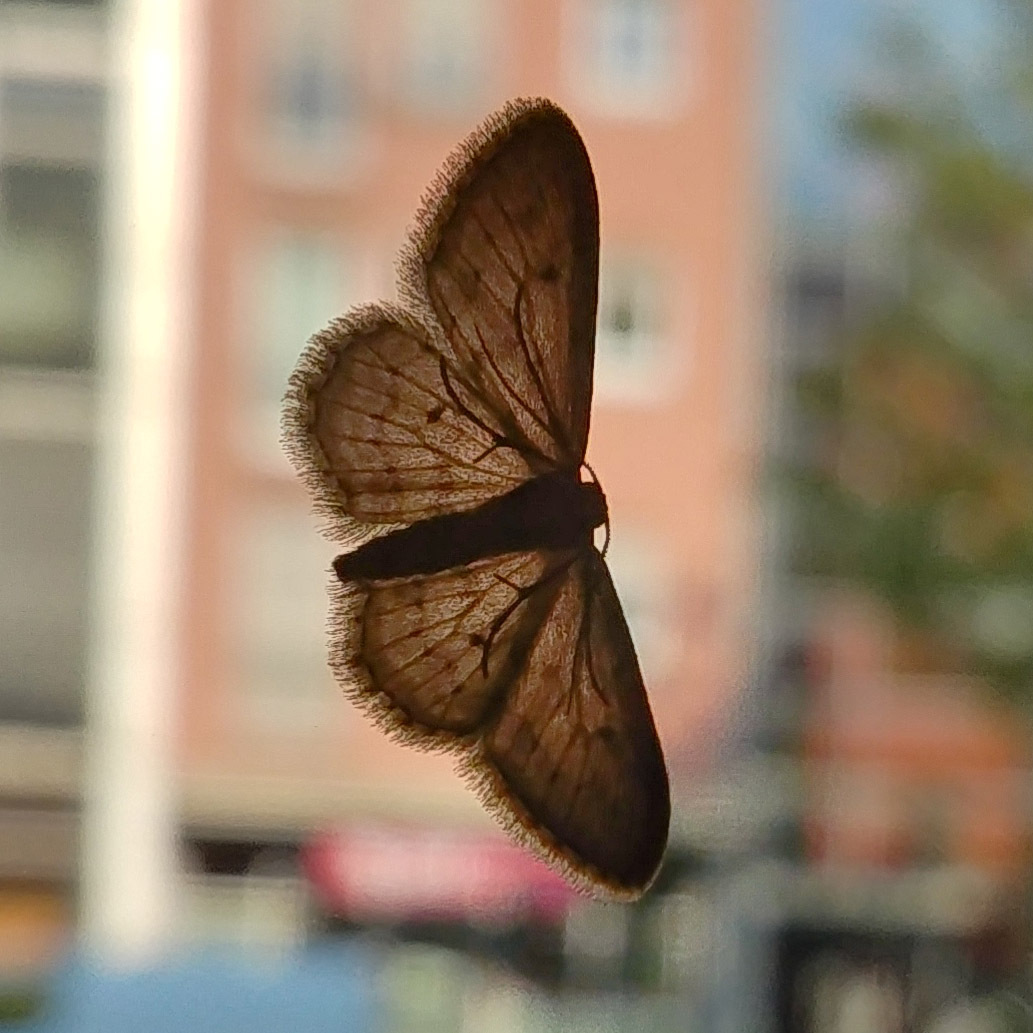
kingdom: Animalia
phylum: Arthropoda
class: Insecta
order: Lepidoptera
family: Geometridae
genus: Idaea
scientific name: Idaea seriata
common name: Small dusty wave
